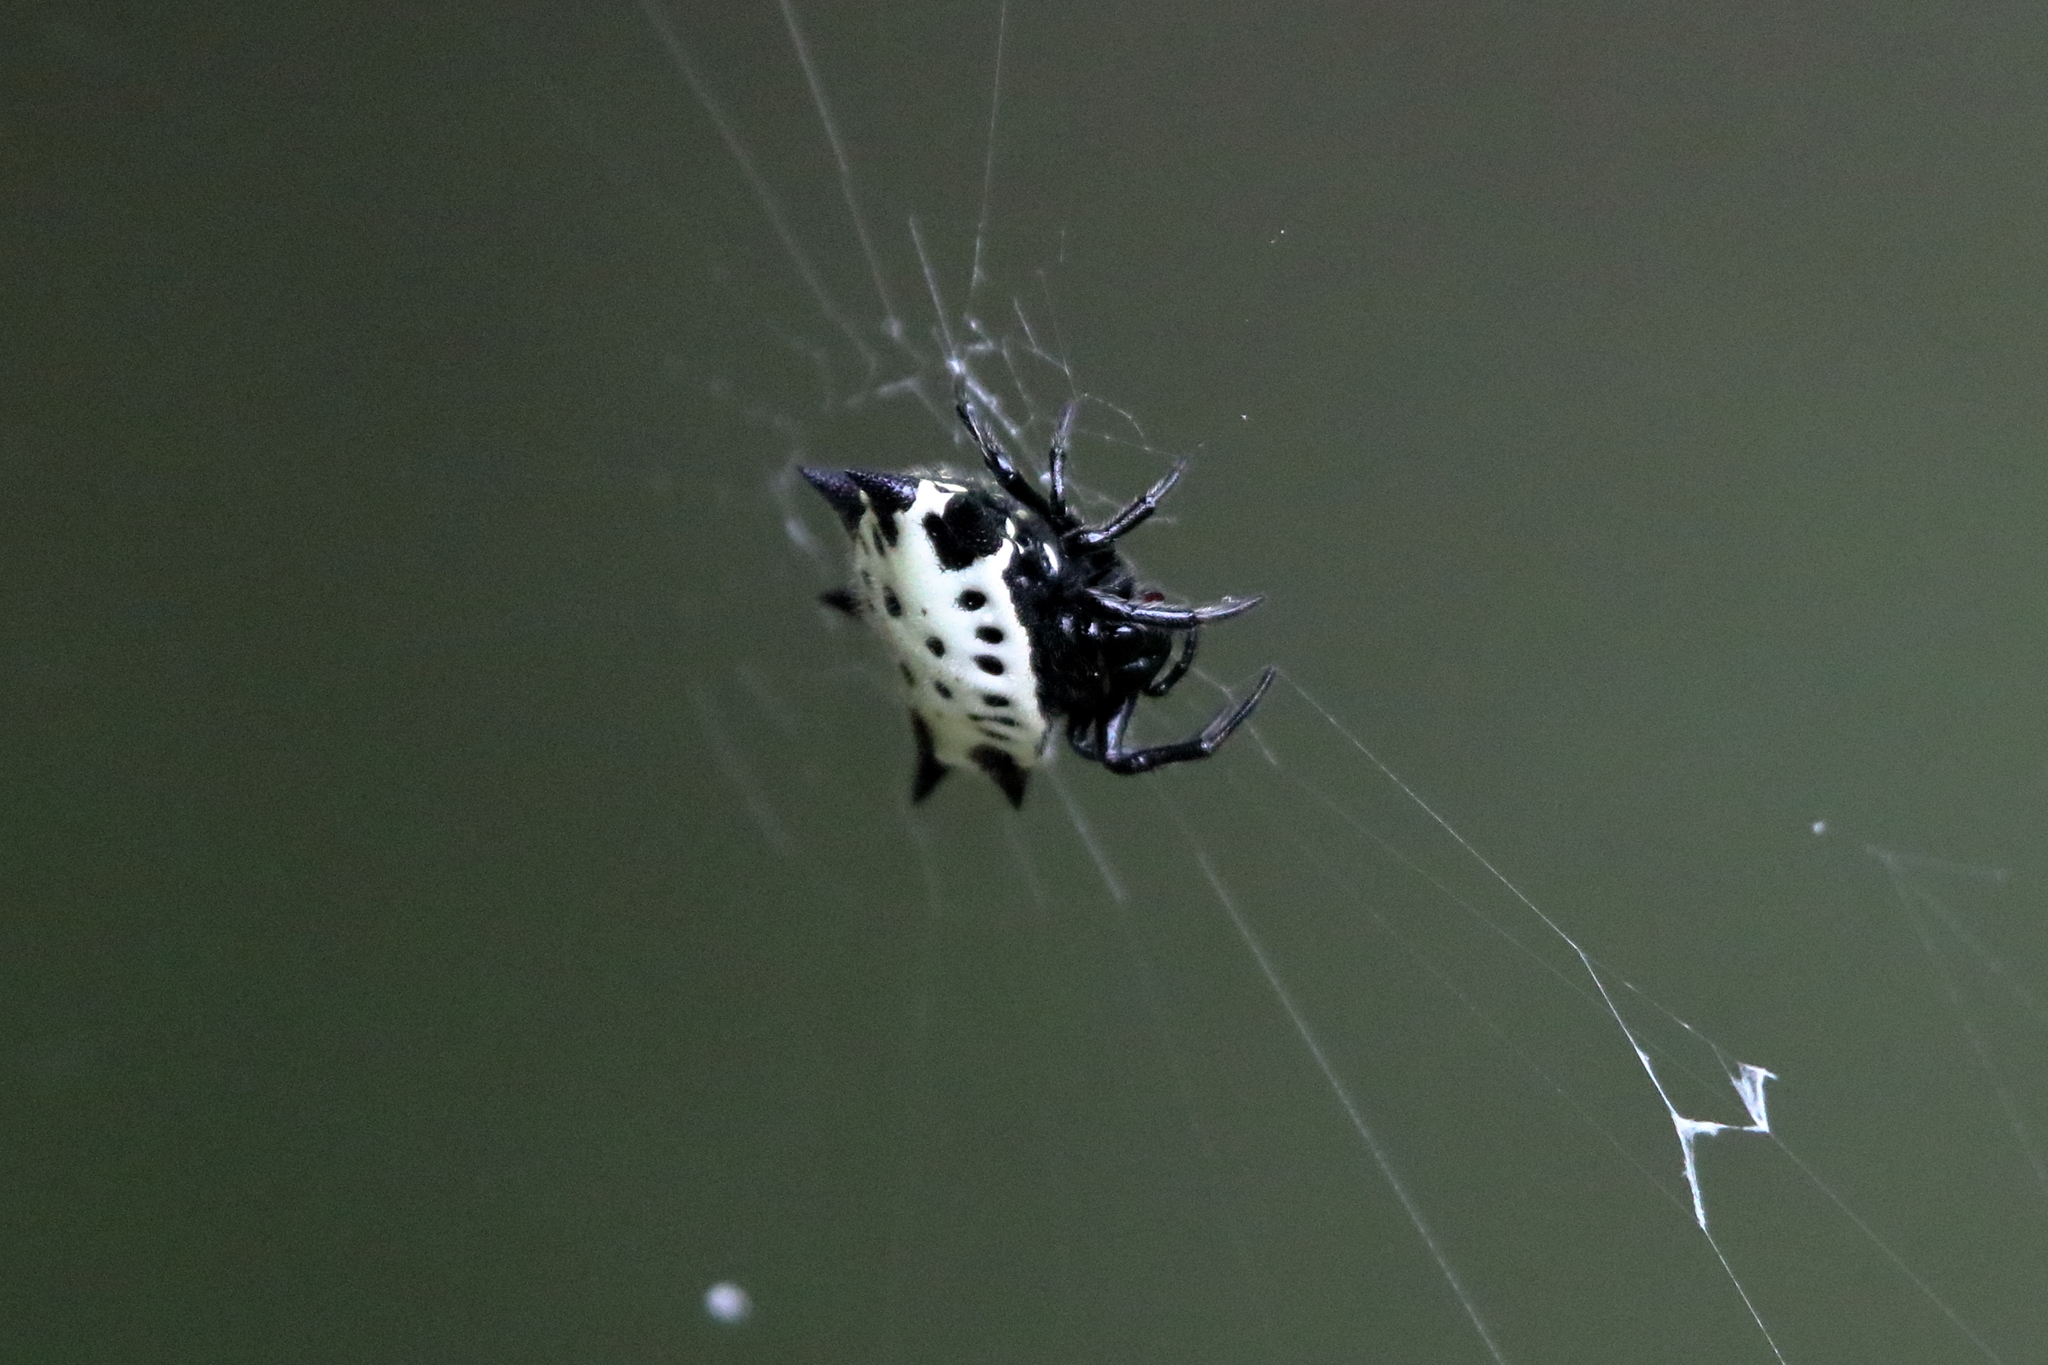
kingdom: Animalia
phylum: Arthropoda
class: Arachnida
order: Araneae
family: Araneidae
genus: Gasteracantha
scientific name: Gasteracantha cancriformis
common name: Orb weavers
